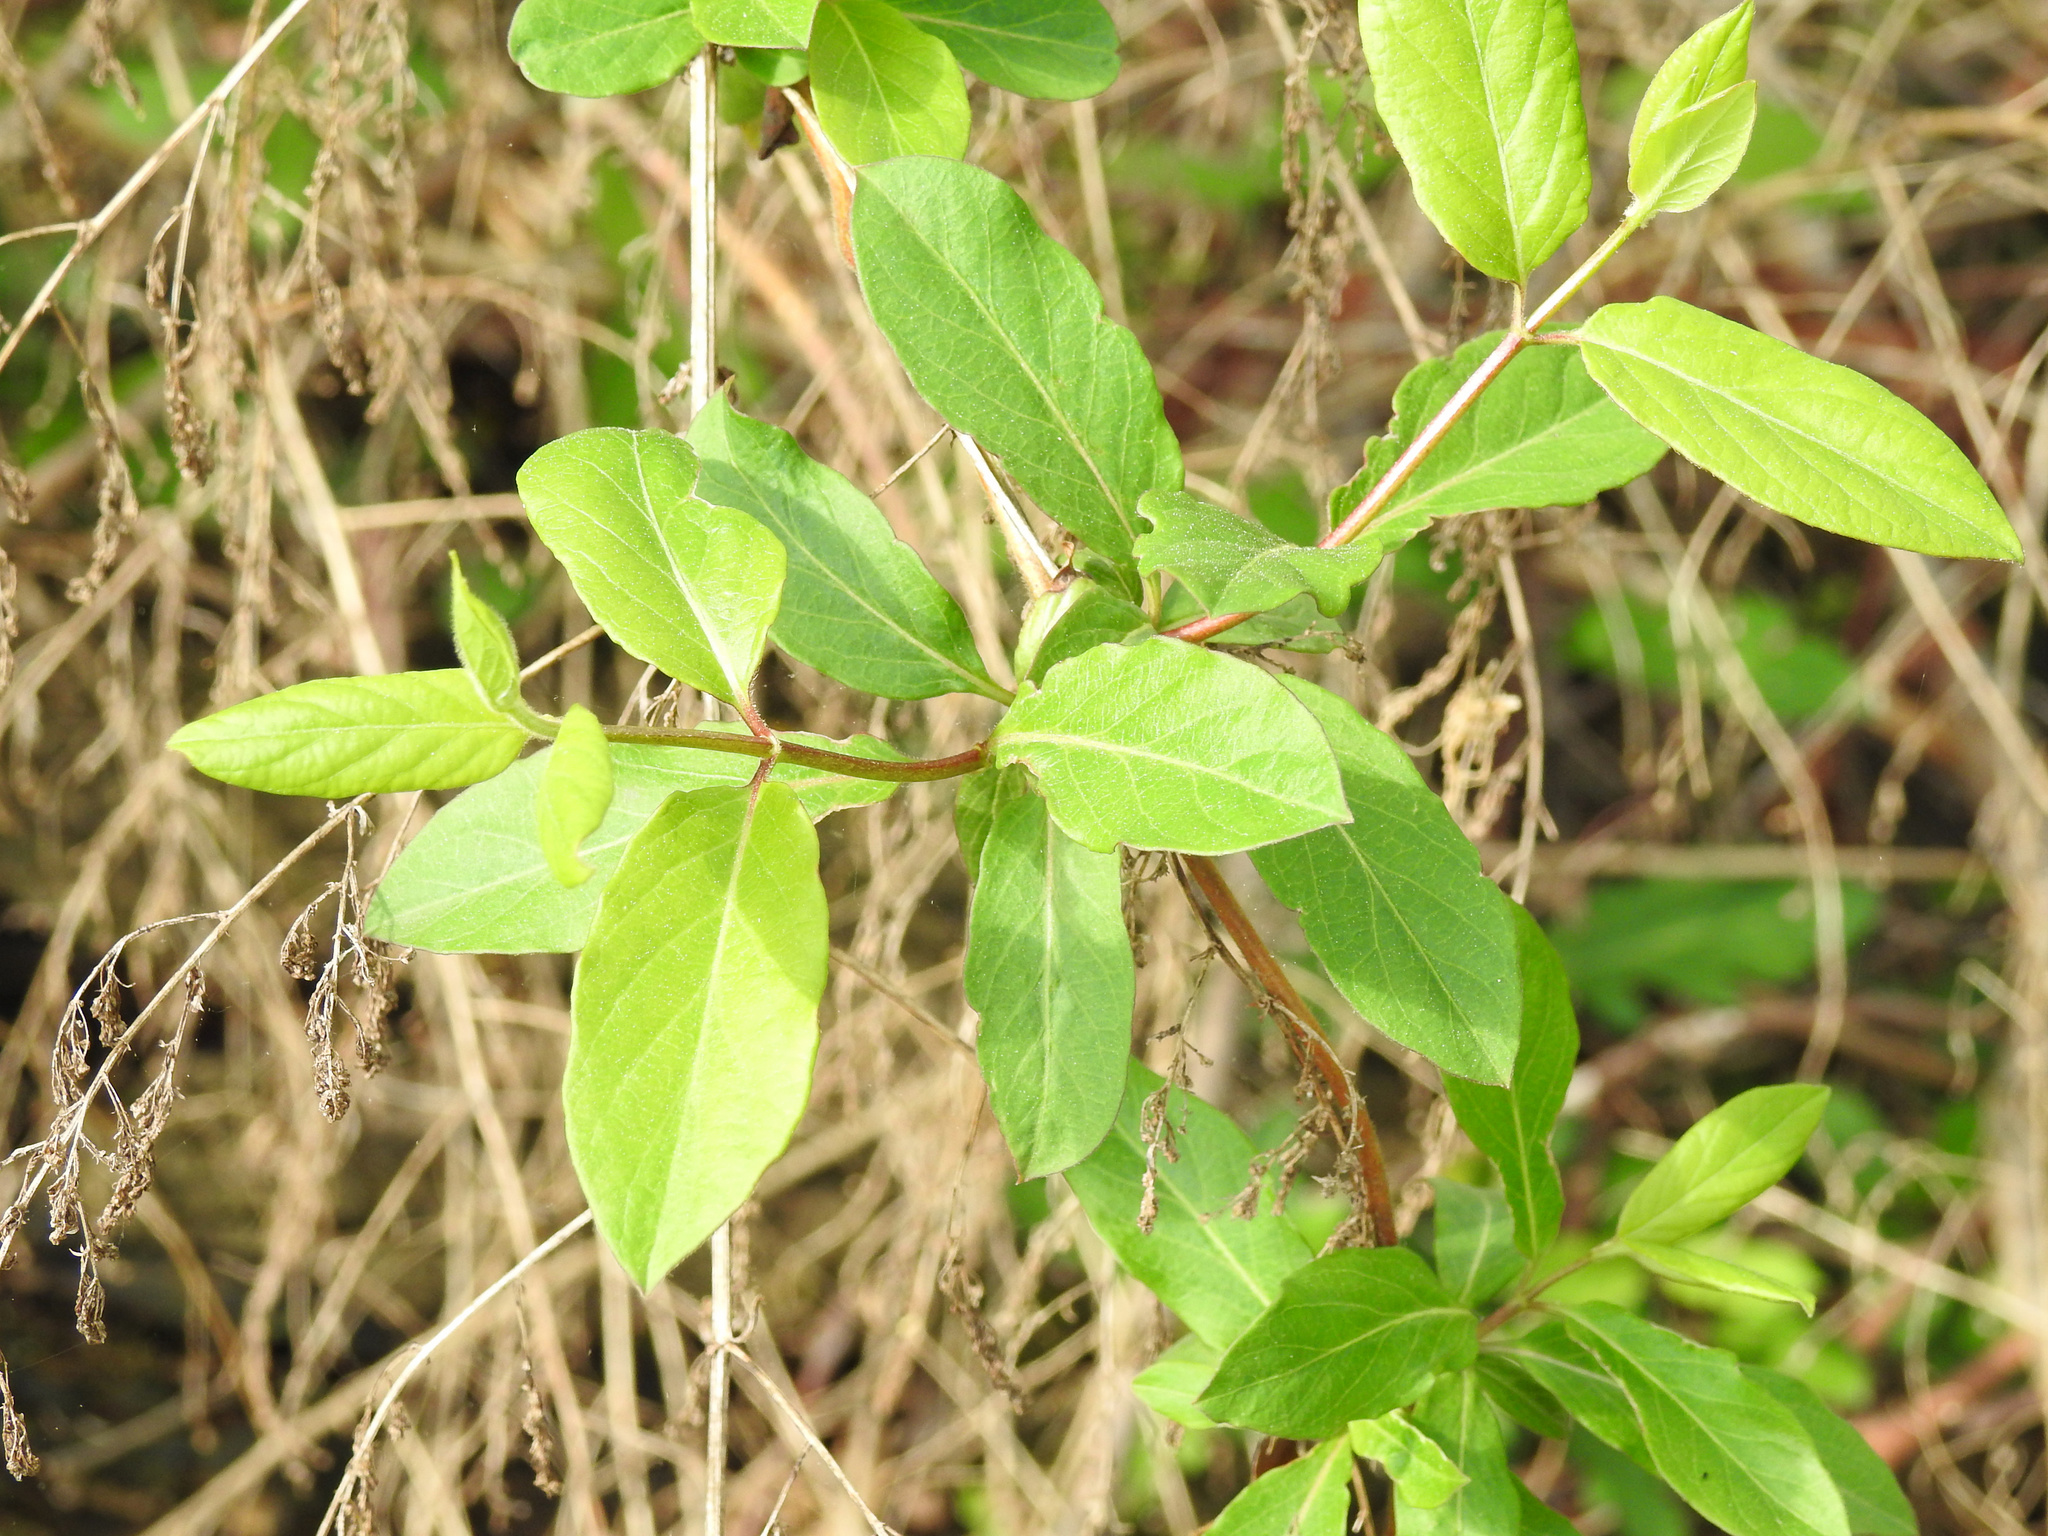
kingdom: Plantae
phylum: Tracheophyta
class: Magnoliopsida
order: Dipsacales
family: Caprifoliaceae
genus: Lonicera
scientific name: Lonicera japonica
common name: Japanese honeysuckle
